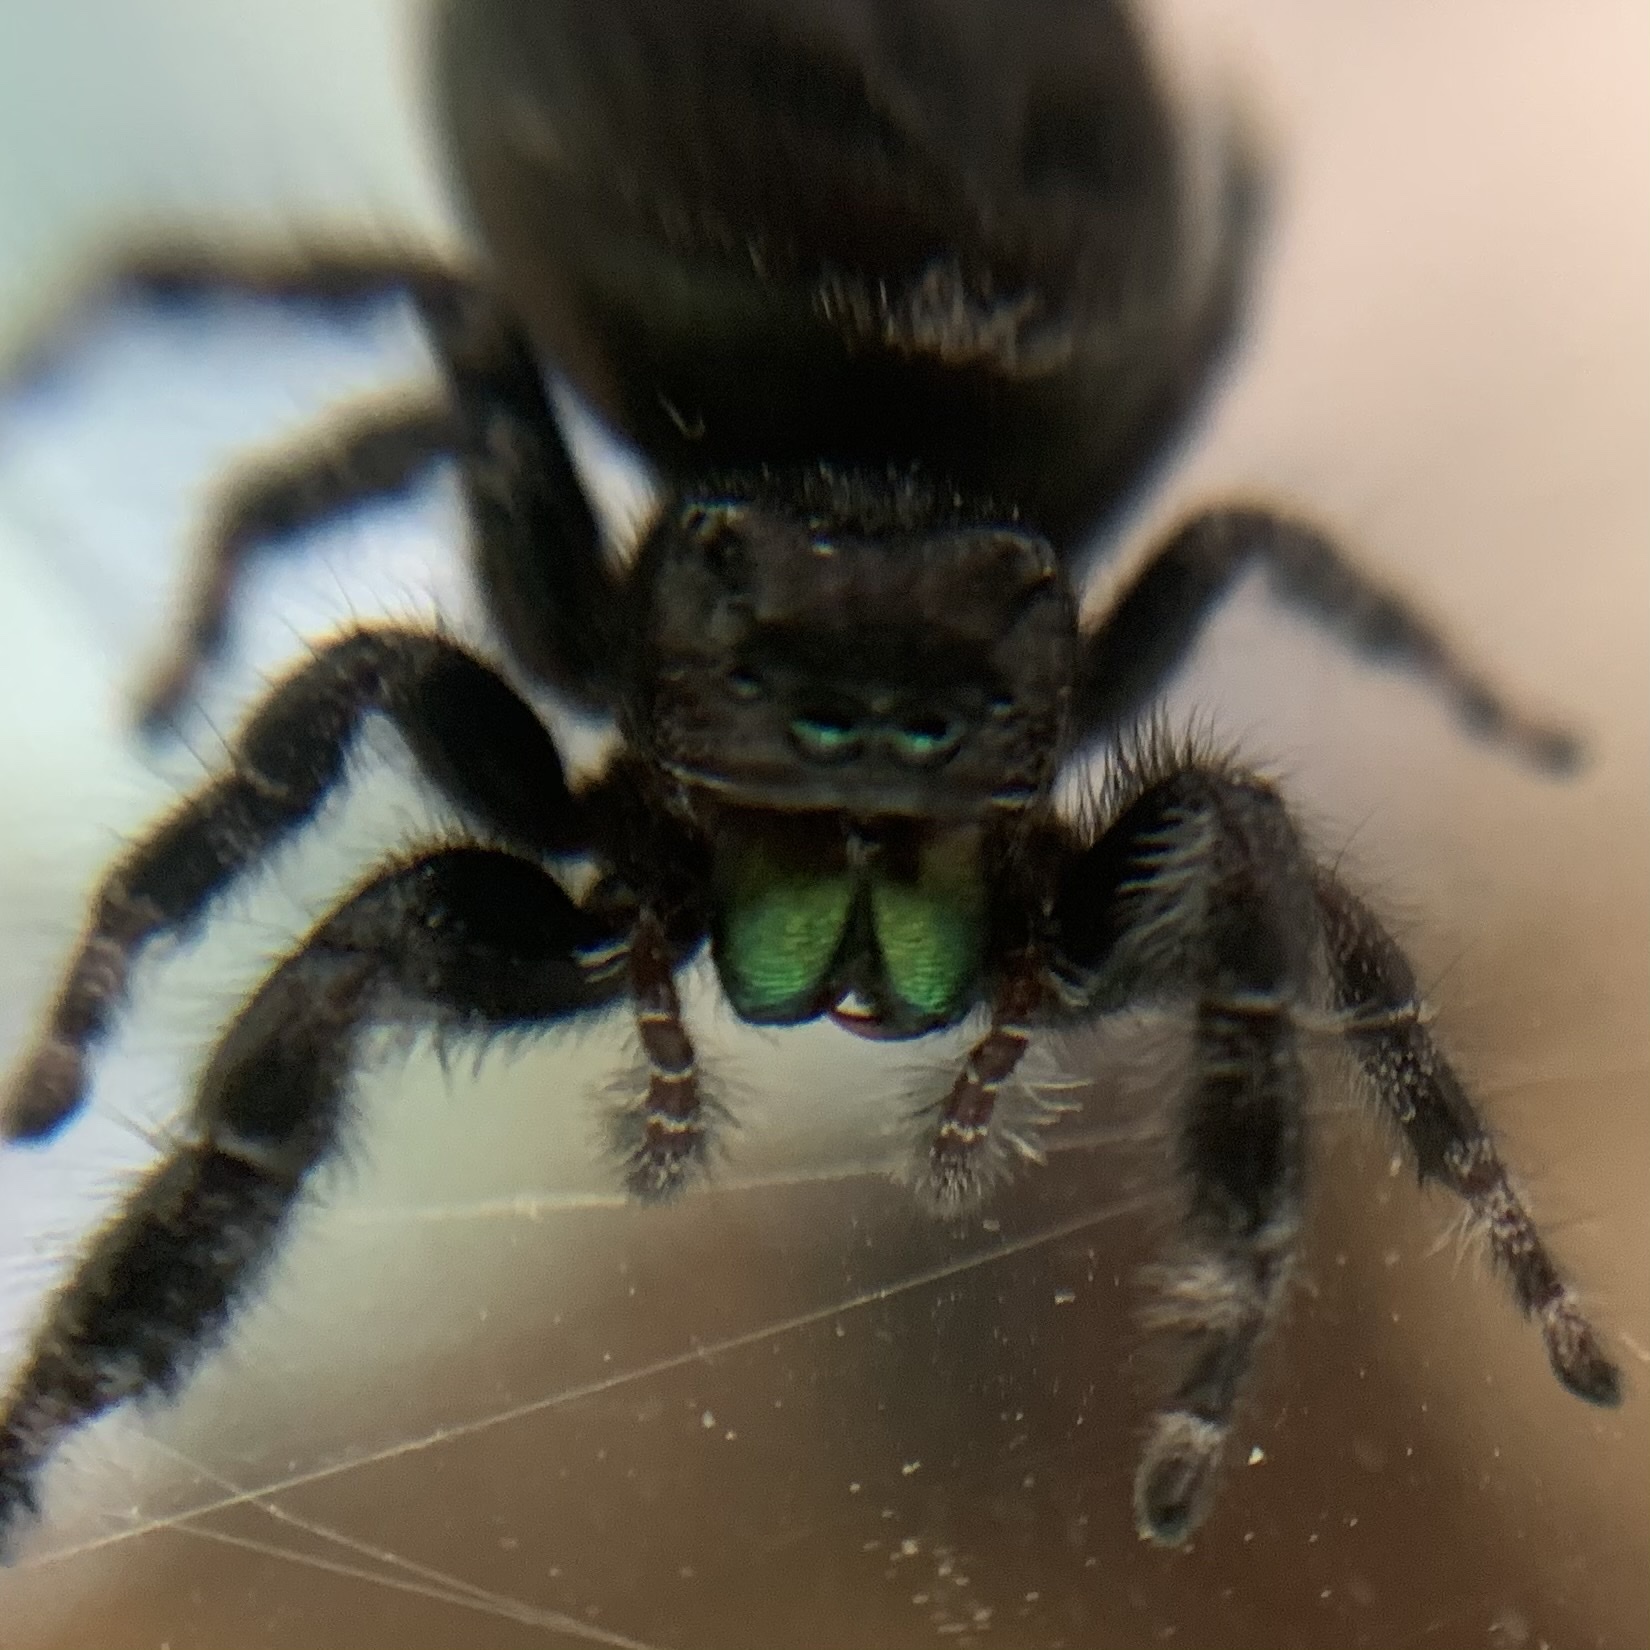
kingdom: Animalia
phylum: Arthropoda
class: Arachnida
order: Araneae
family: Salticidae
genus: Phidippus
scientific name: Phidippus audax
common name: Bold jumper
